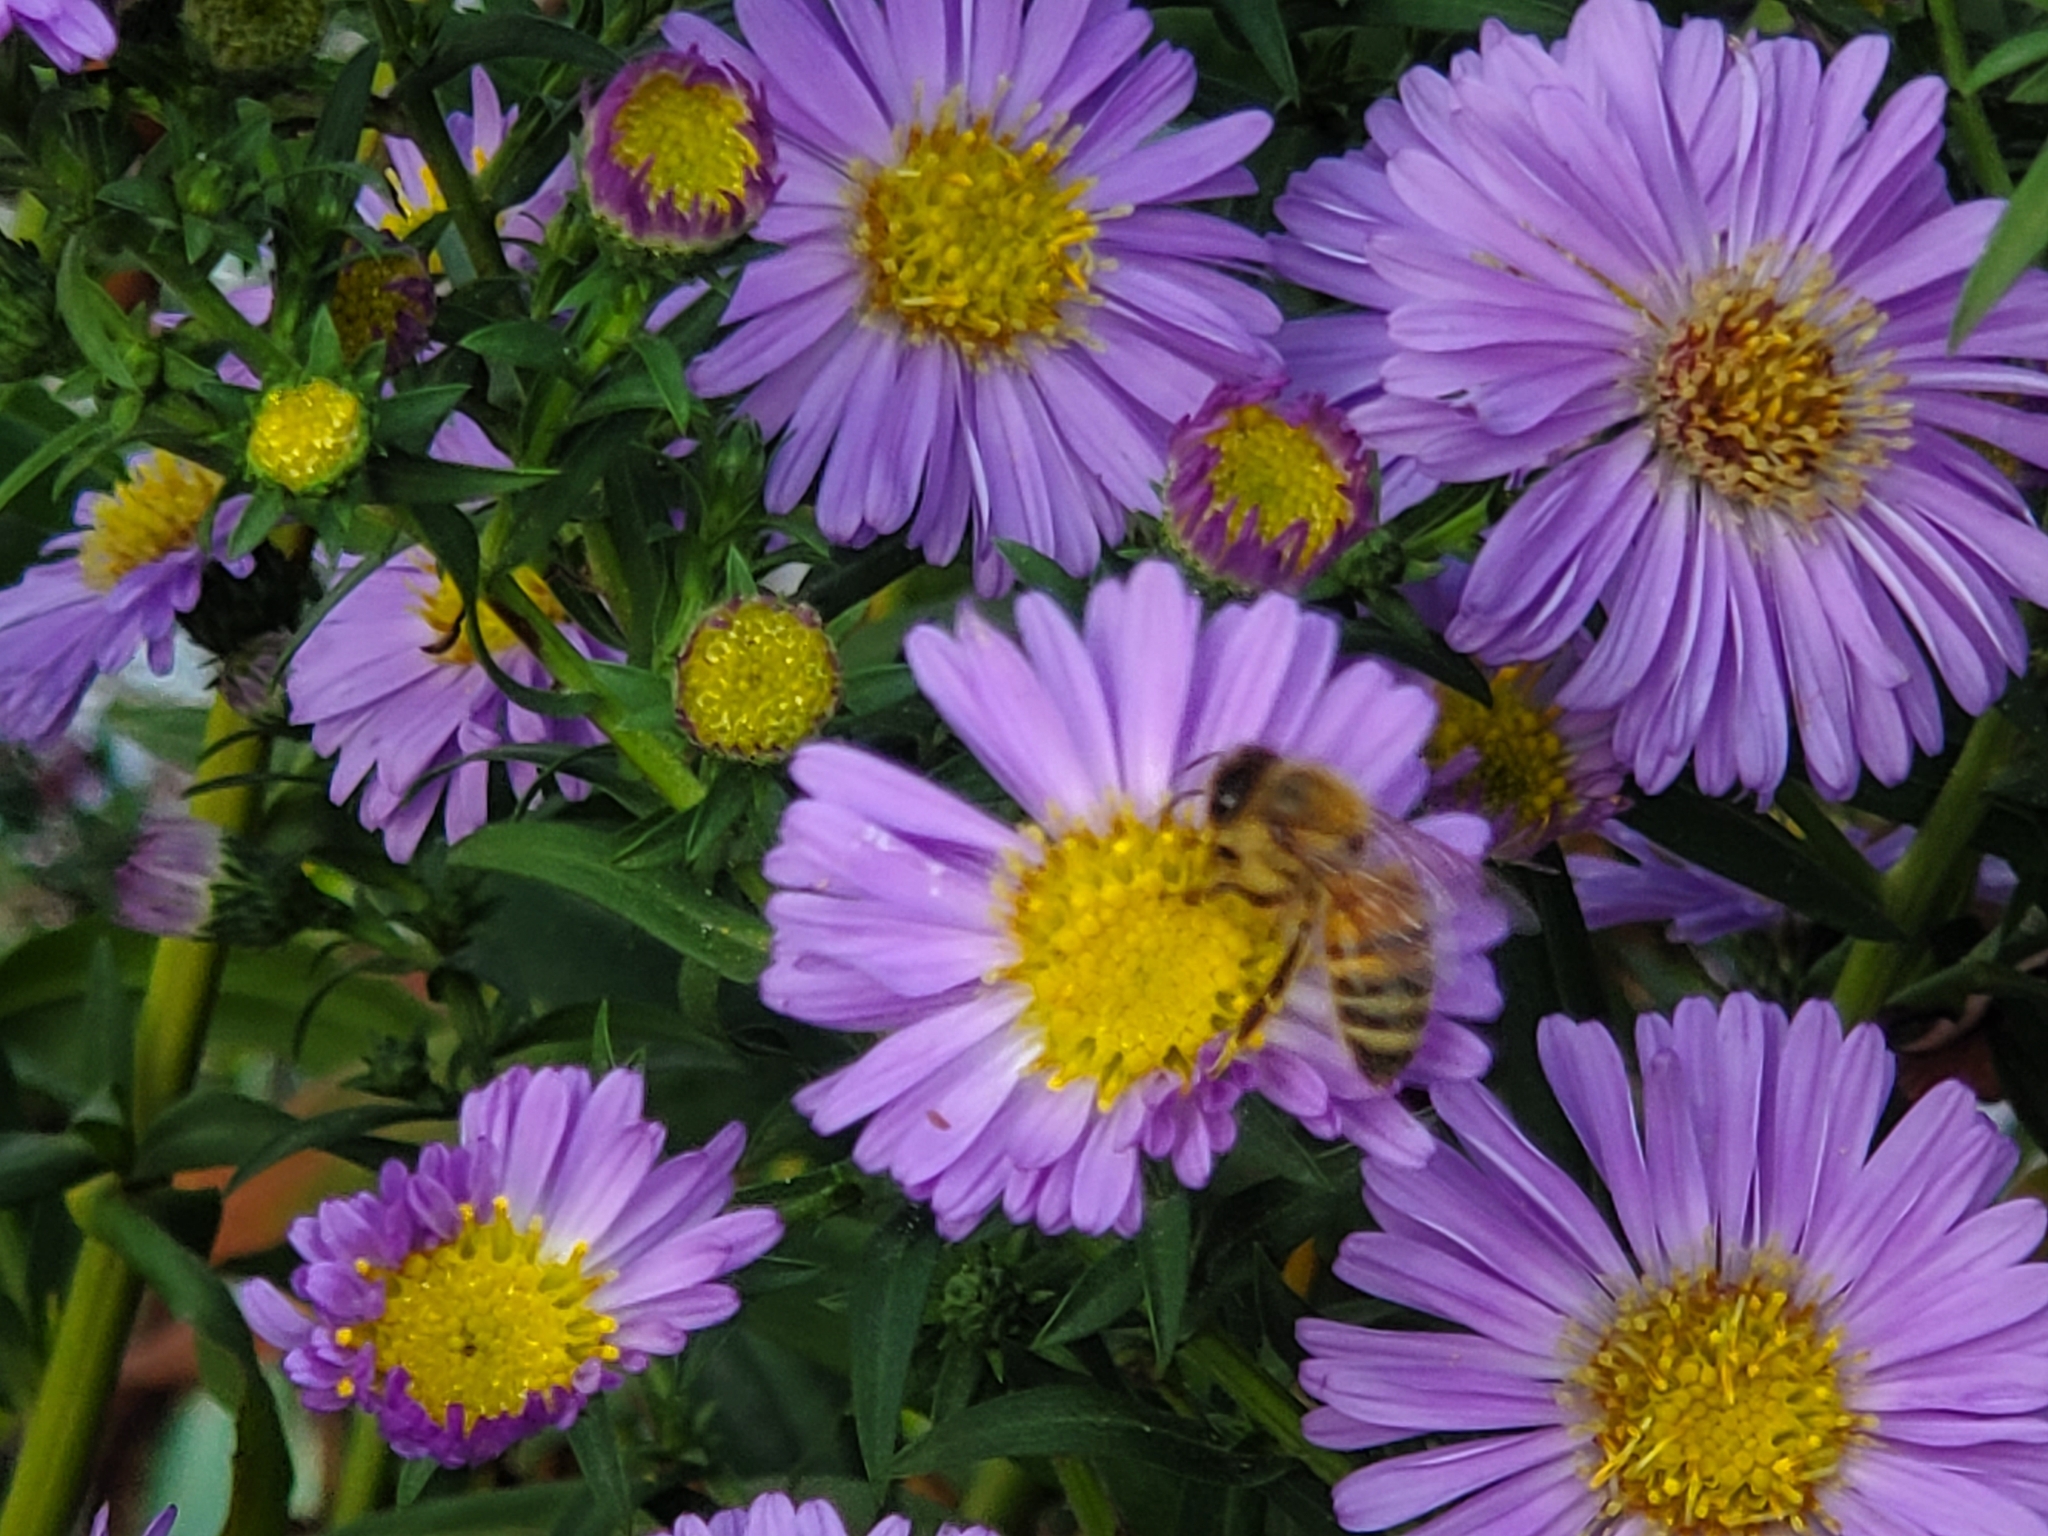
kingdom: Animalia
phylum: Arthropoda
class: Insecta
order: Hymenoptera
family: Apidae
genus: Apis
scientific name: Apis mellifera
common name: Honey bee
